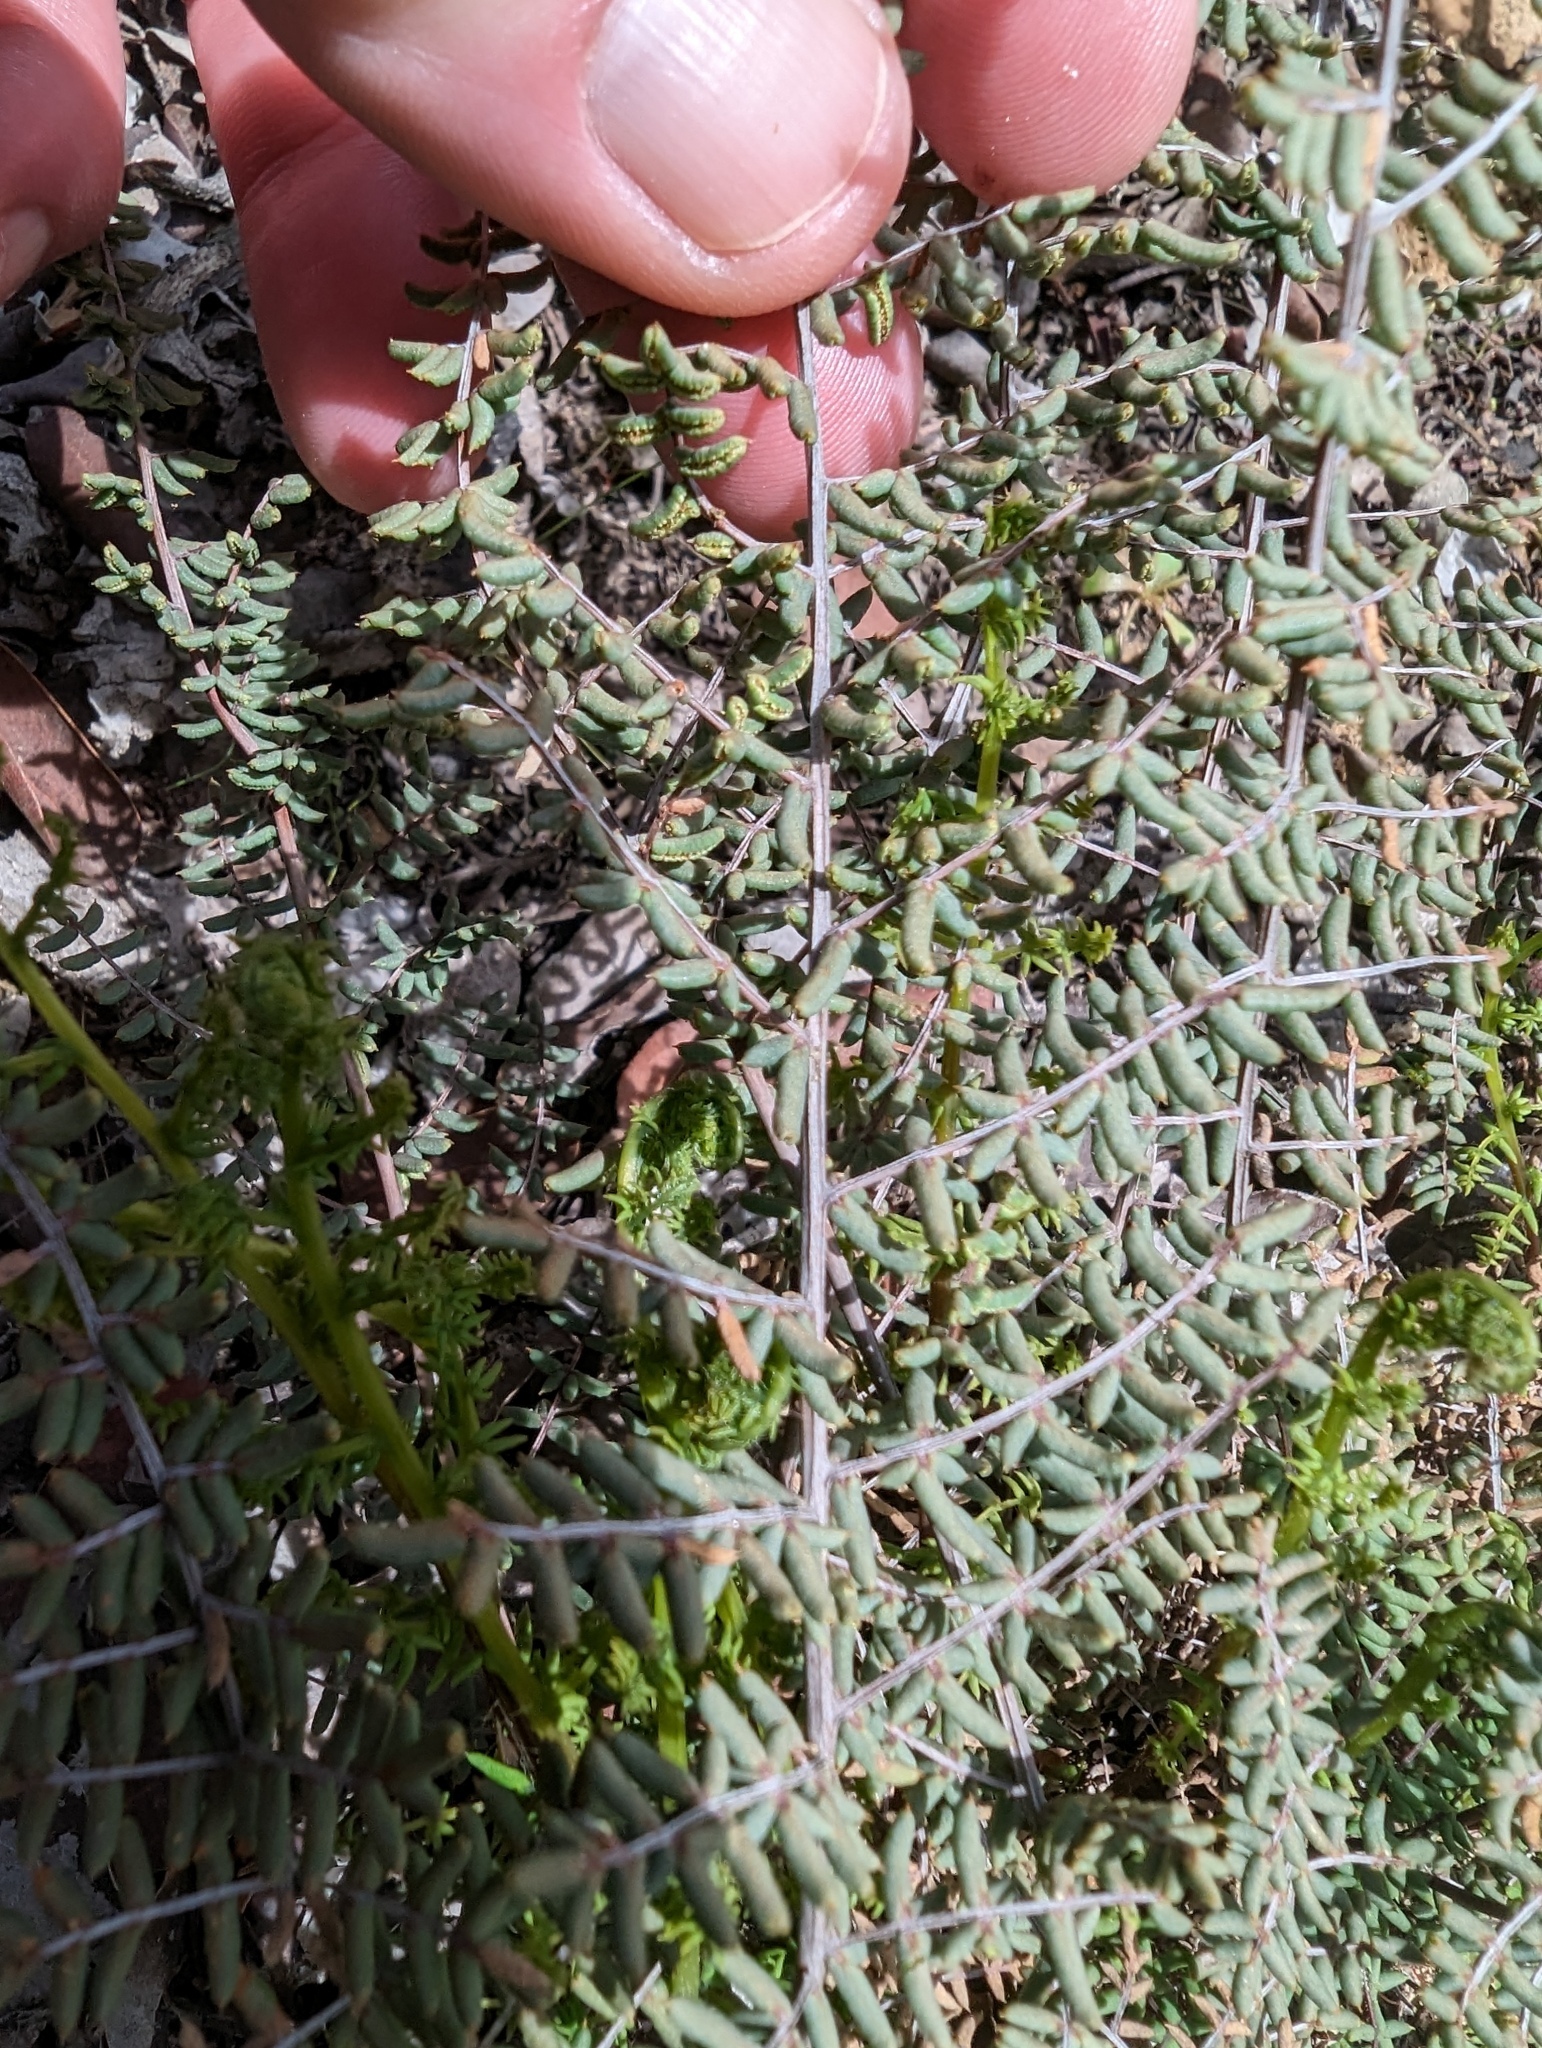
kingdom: Plantae
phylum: Tracheophyta
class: Polypodiopsida
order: Polypodiales
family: Pteridaceae
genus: Pellaea
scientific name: Pellaea mucronata
